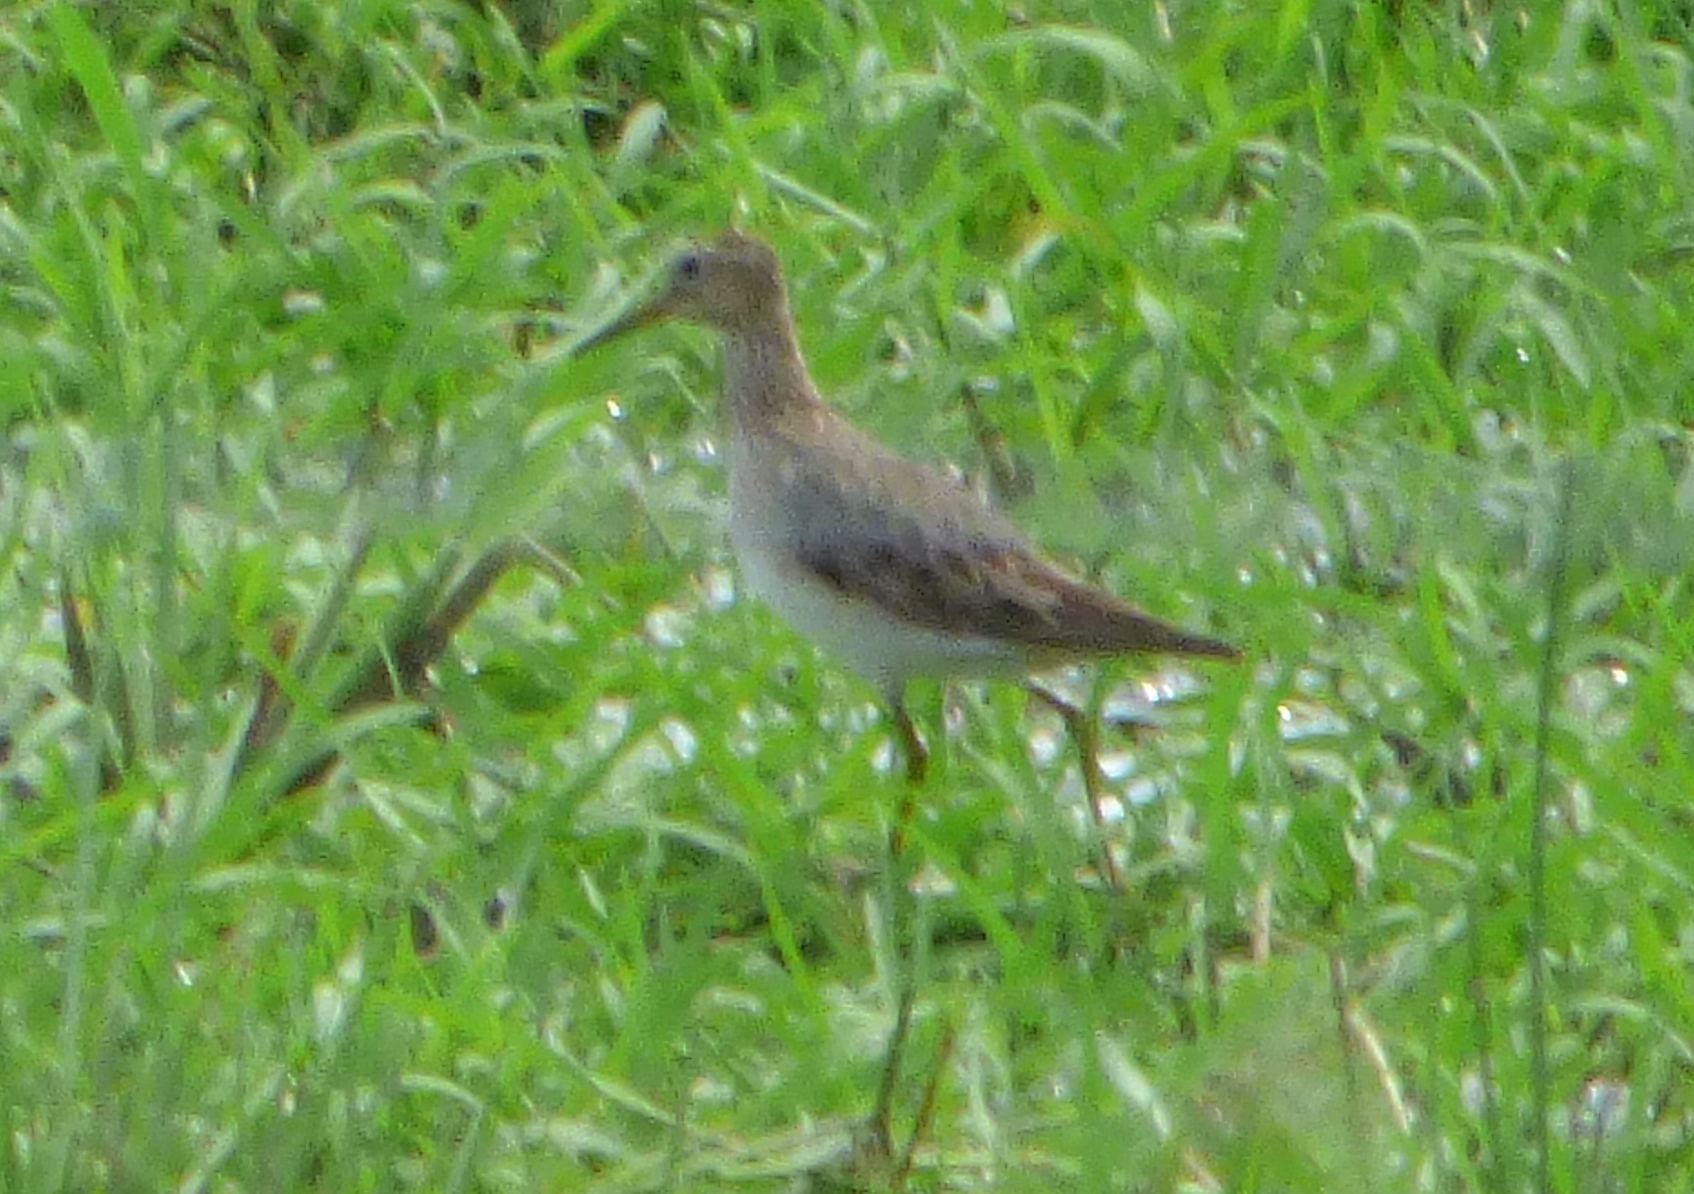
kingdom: Animalia
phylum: Chordata
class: Aves
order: Charadriiformes
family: Scolopacidae
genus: Calidris
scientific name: Calidris melanotos
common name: Pectoral sandpiper
